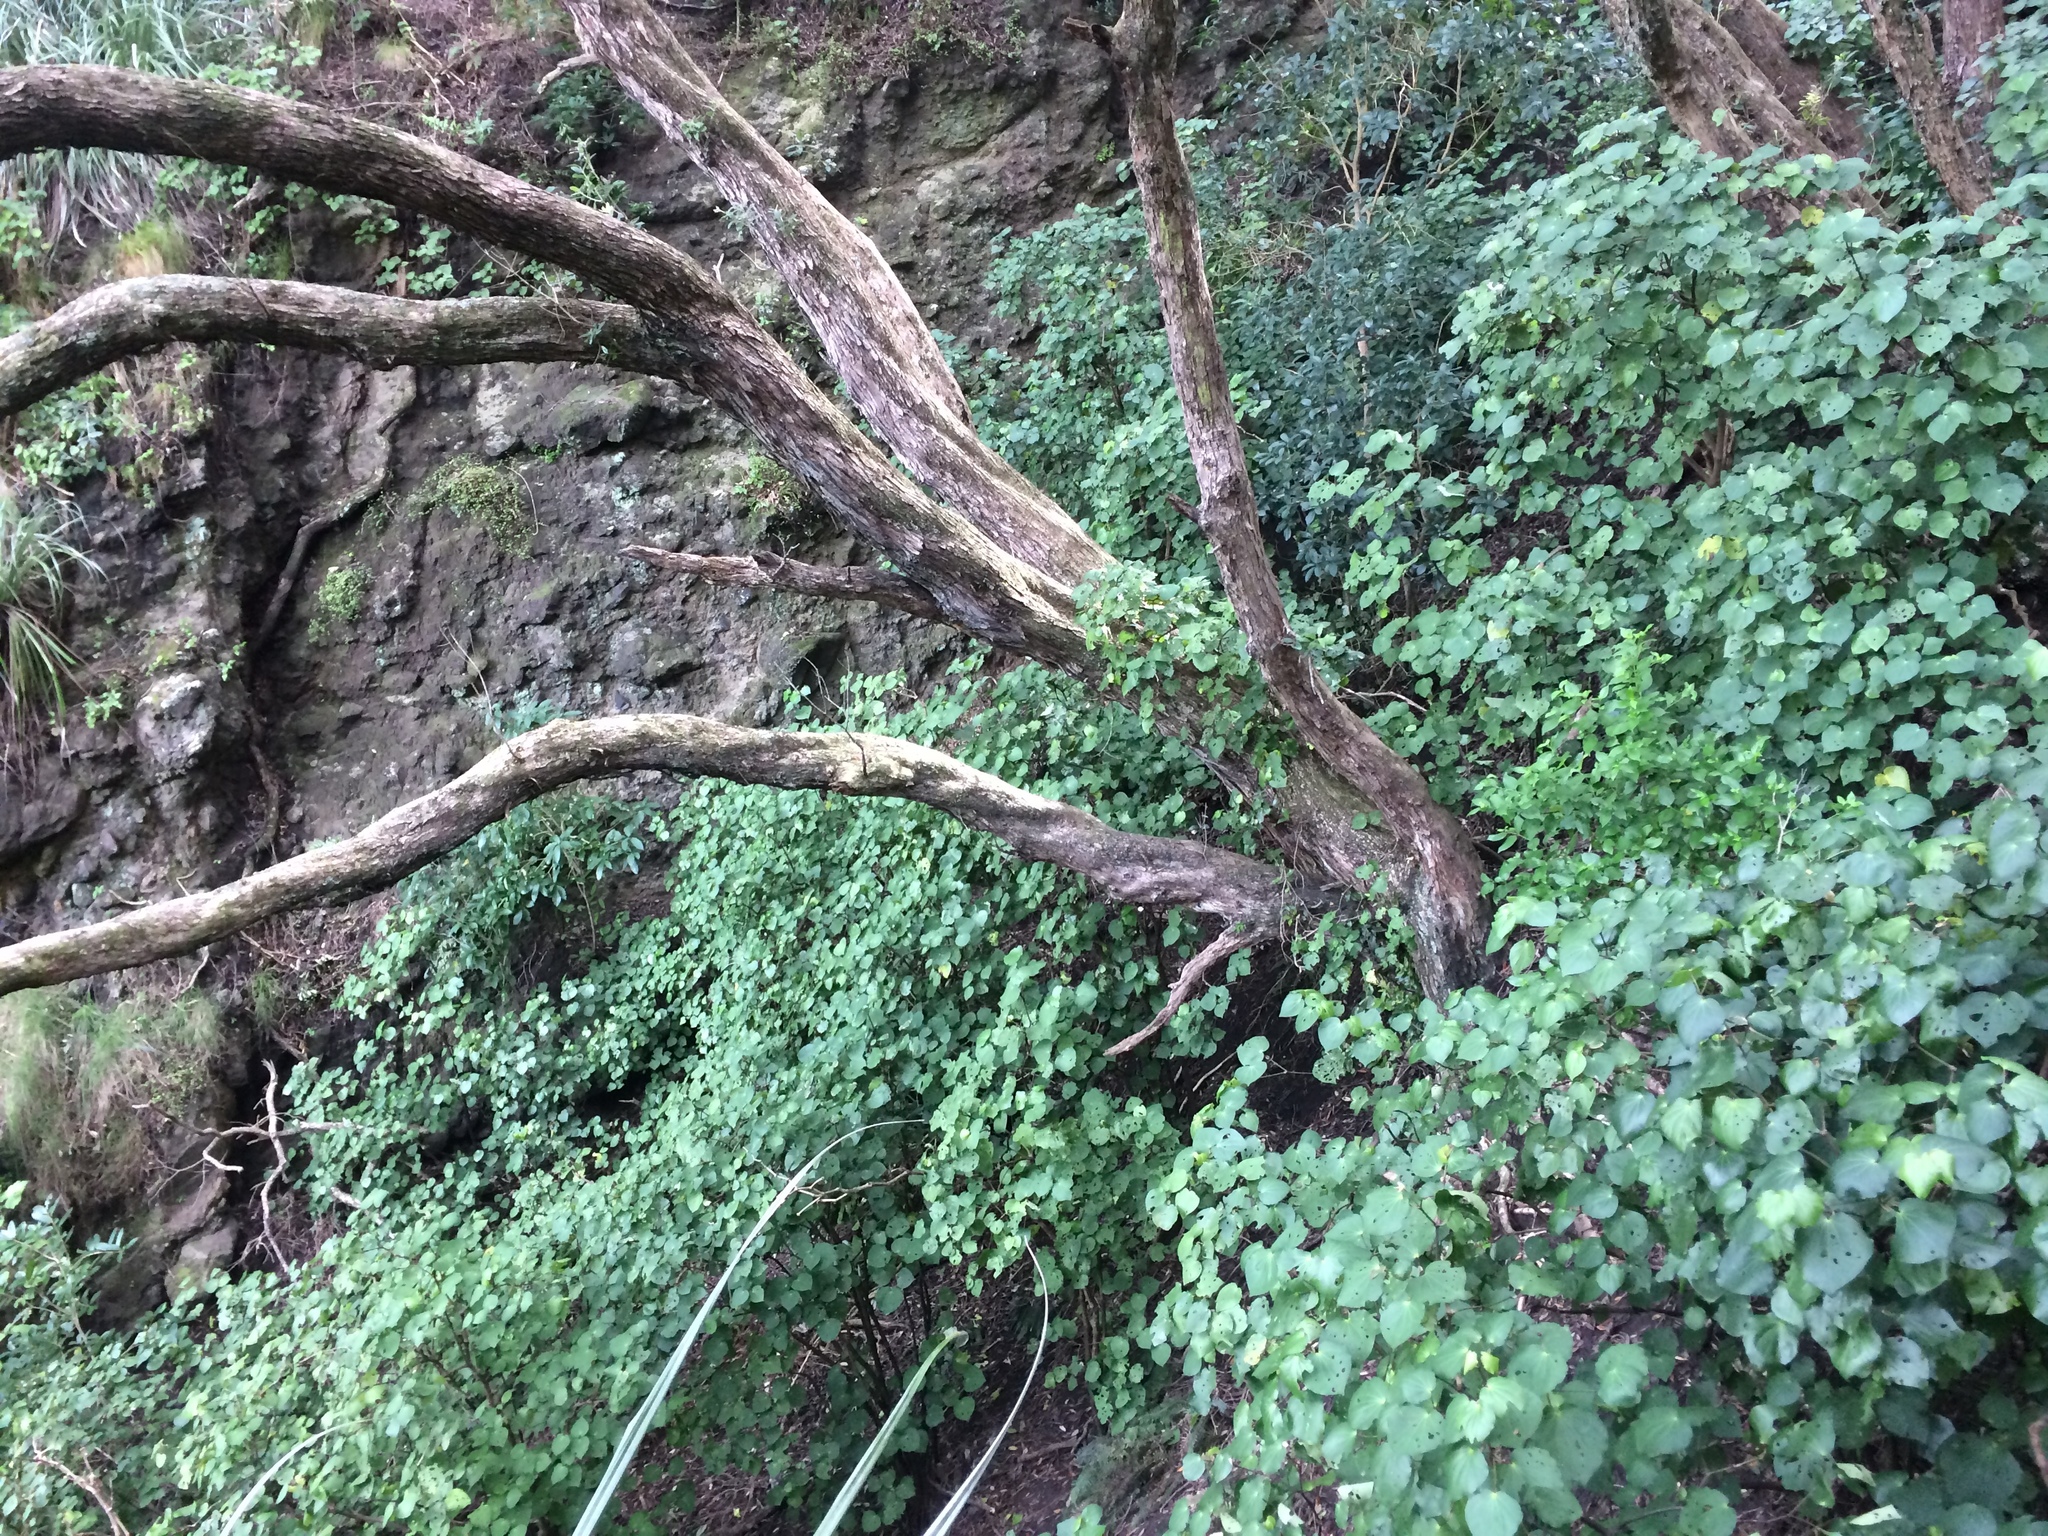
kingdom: Plantae
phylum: Tracheophyta
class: Magnoliopsida
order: Piperales
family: Piperaceae
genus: Macropiper
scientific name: Macropiper excelsum
